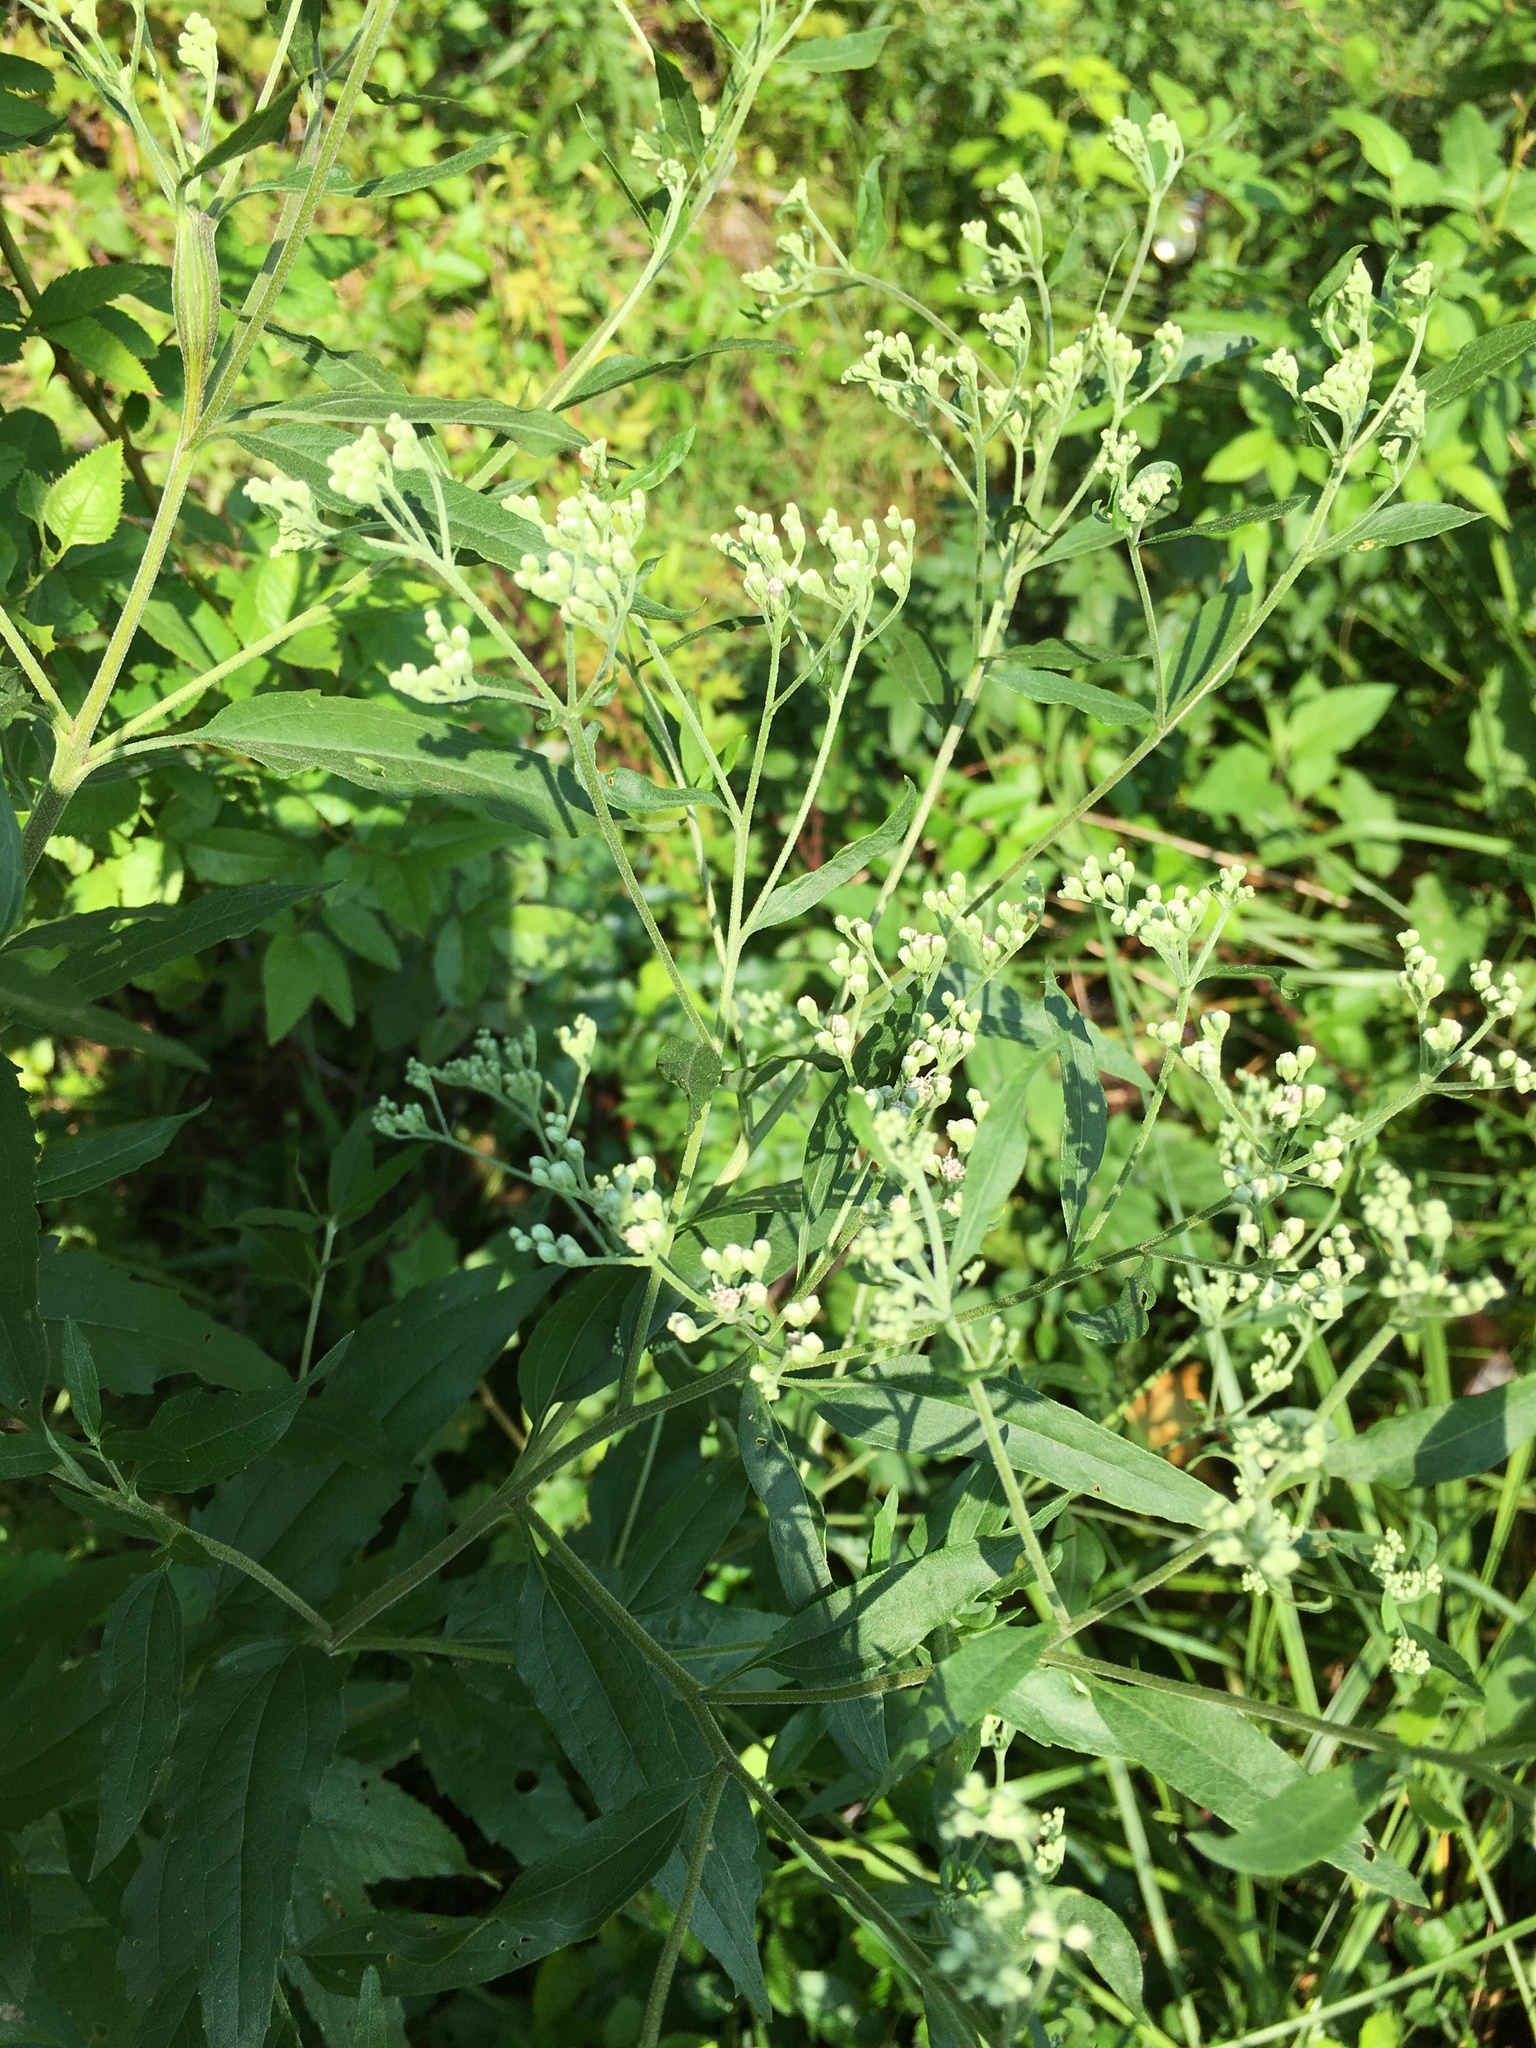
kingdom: Plantae
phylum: Tracheophyta
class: Magnoliopsida
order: Asterales
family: Asteraceae
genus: Eupatorium
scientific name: Eupatorium serotinum
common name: Late boneset
